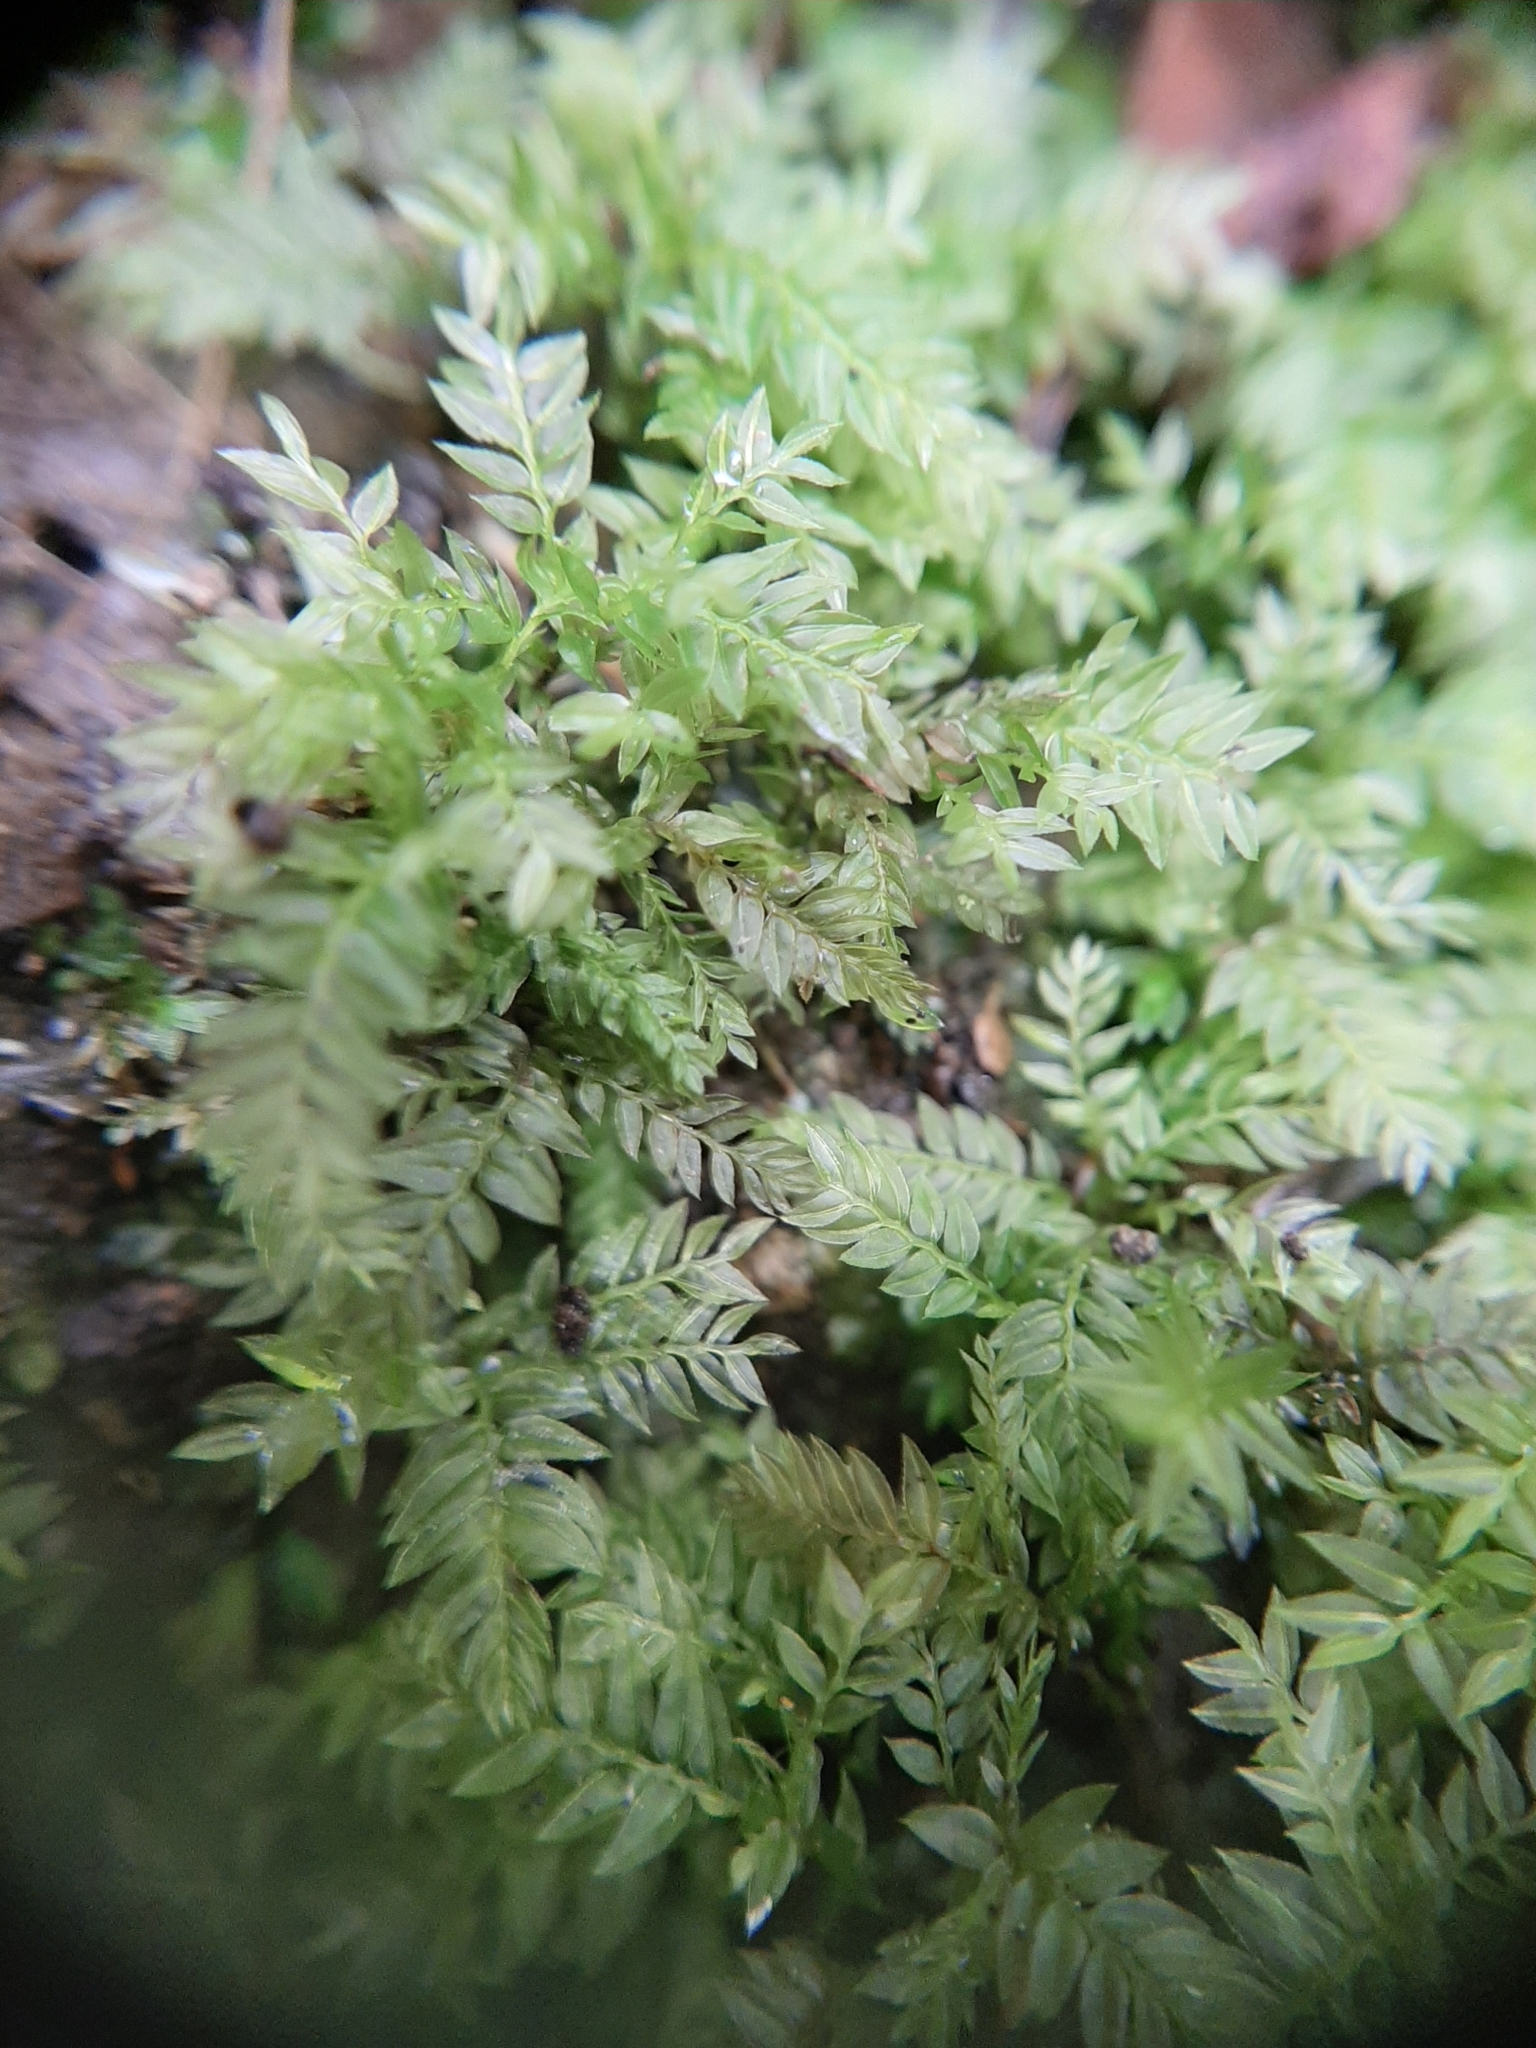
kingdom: Plantae
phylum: Bryophyta
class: Bryopsida
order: Aulacomniales
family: Aulacomniaceae
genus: Hymenodontopsis
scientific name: Hymenodontopsis bifaria
